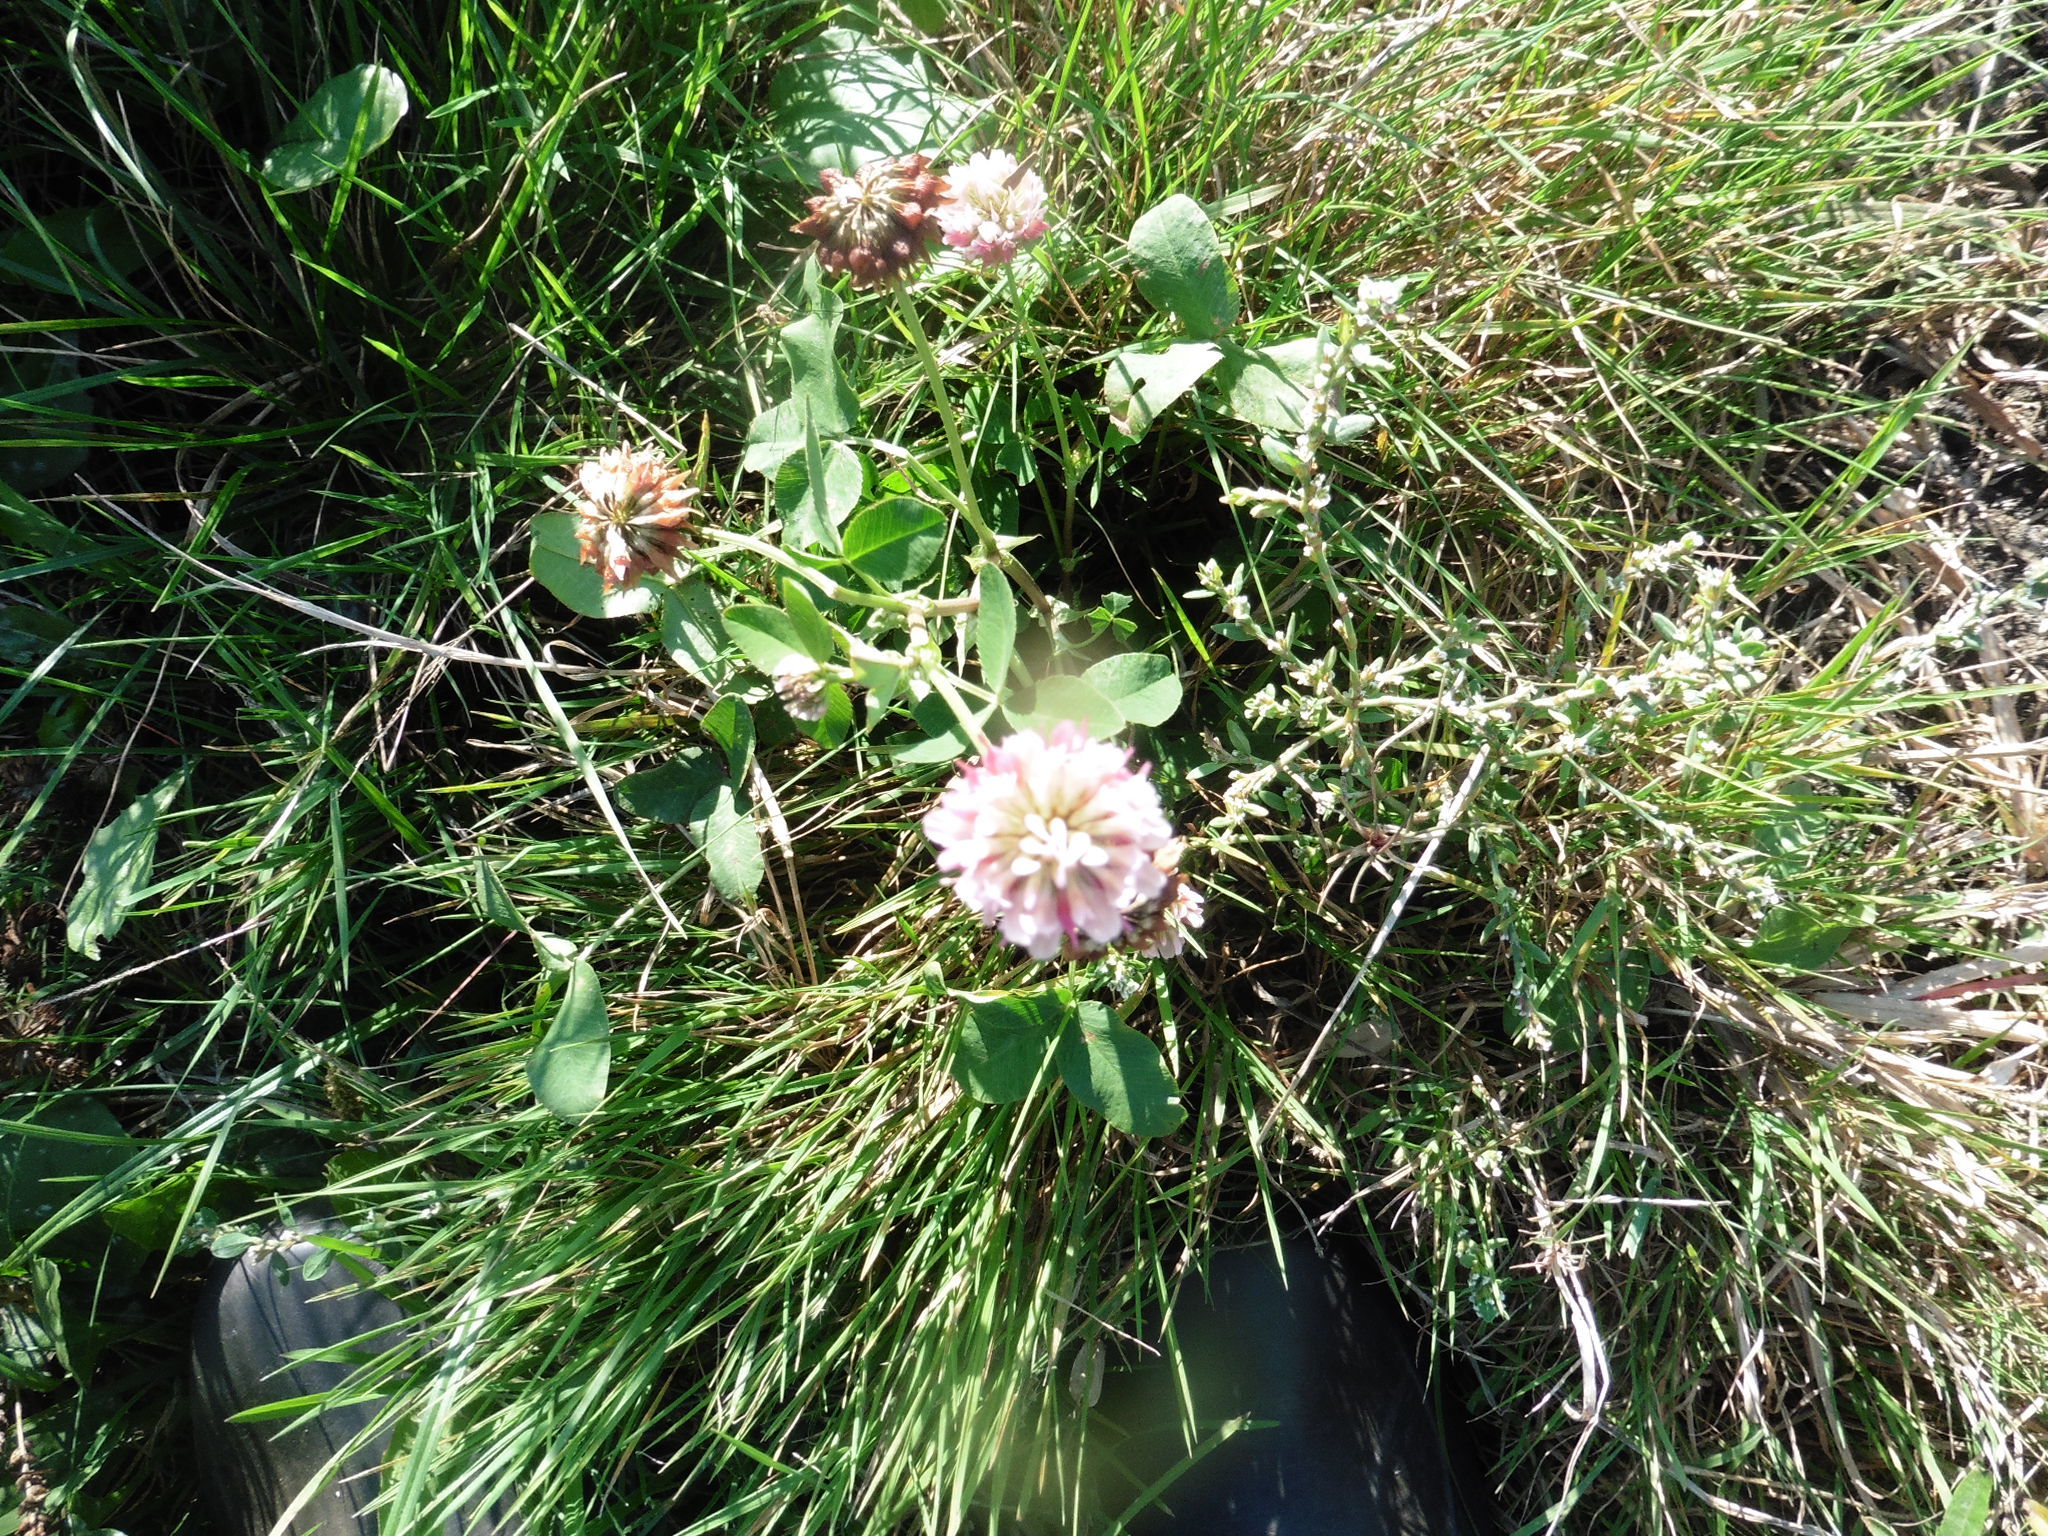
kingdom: Plantae
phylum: Tracheophyta
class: Magnoliopsida
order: Fabales
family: Fabaceae
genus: Trifolium
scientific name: Trifolium hybridum
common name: Alsike clover
